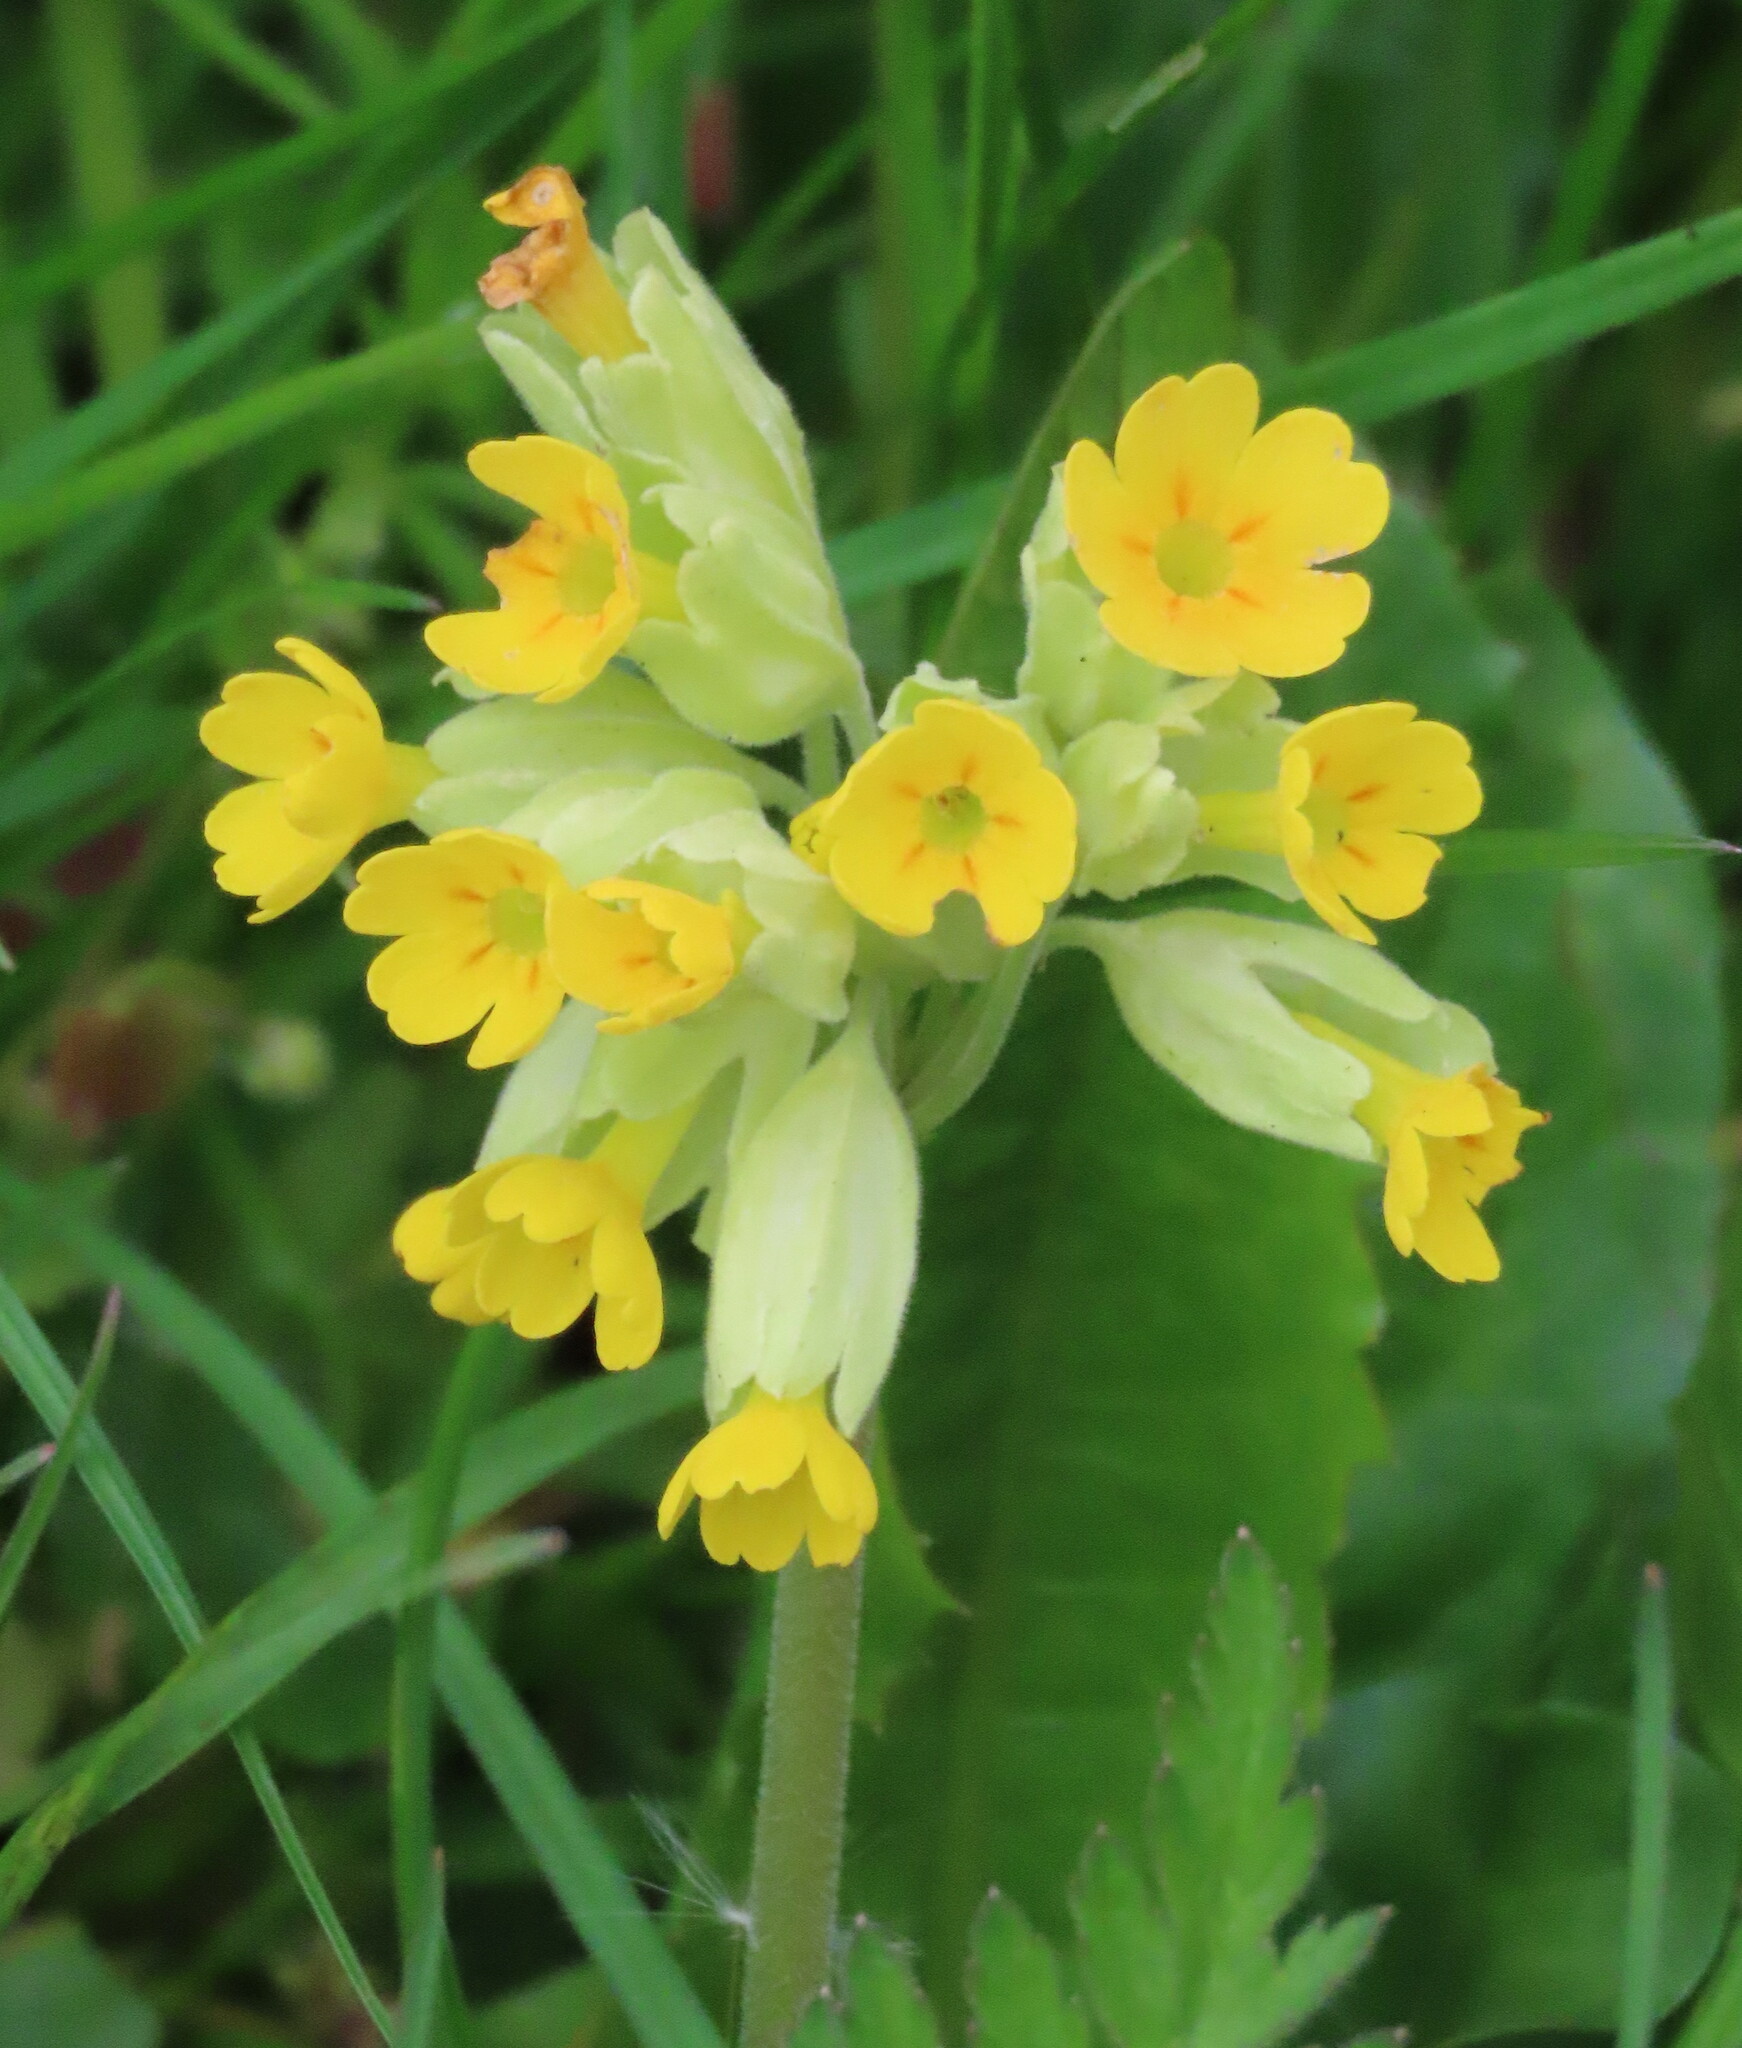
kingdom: Plantae
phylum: Tracheophyta
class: Magnoliopsida
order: Ericales
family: Primulaceae
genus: Primula
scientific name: Primula veris
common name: Cowslip
